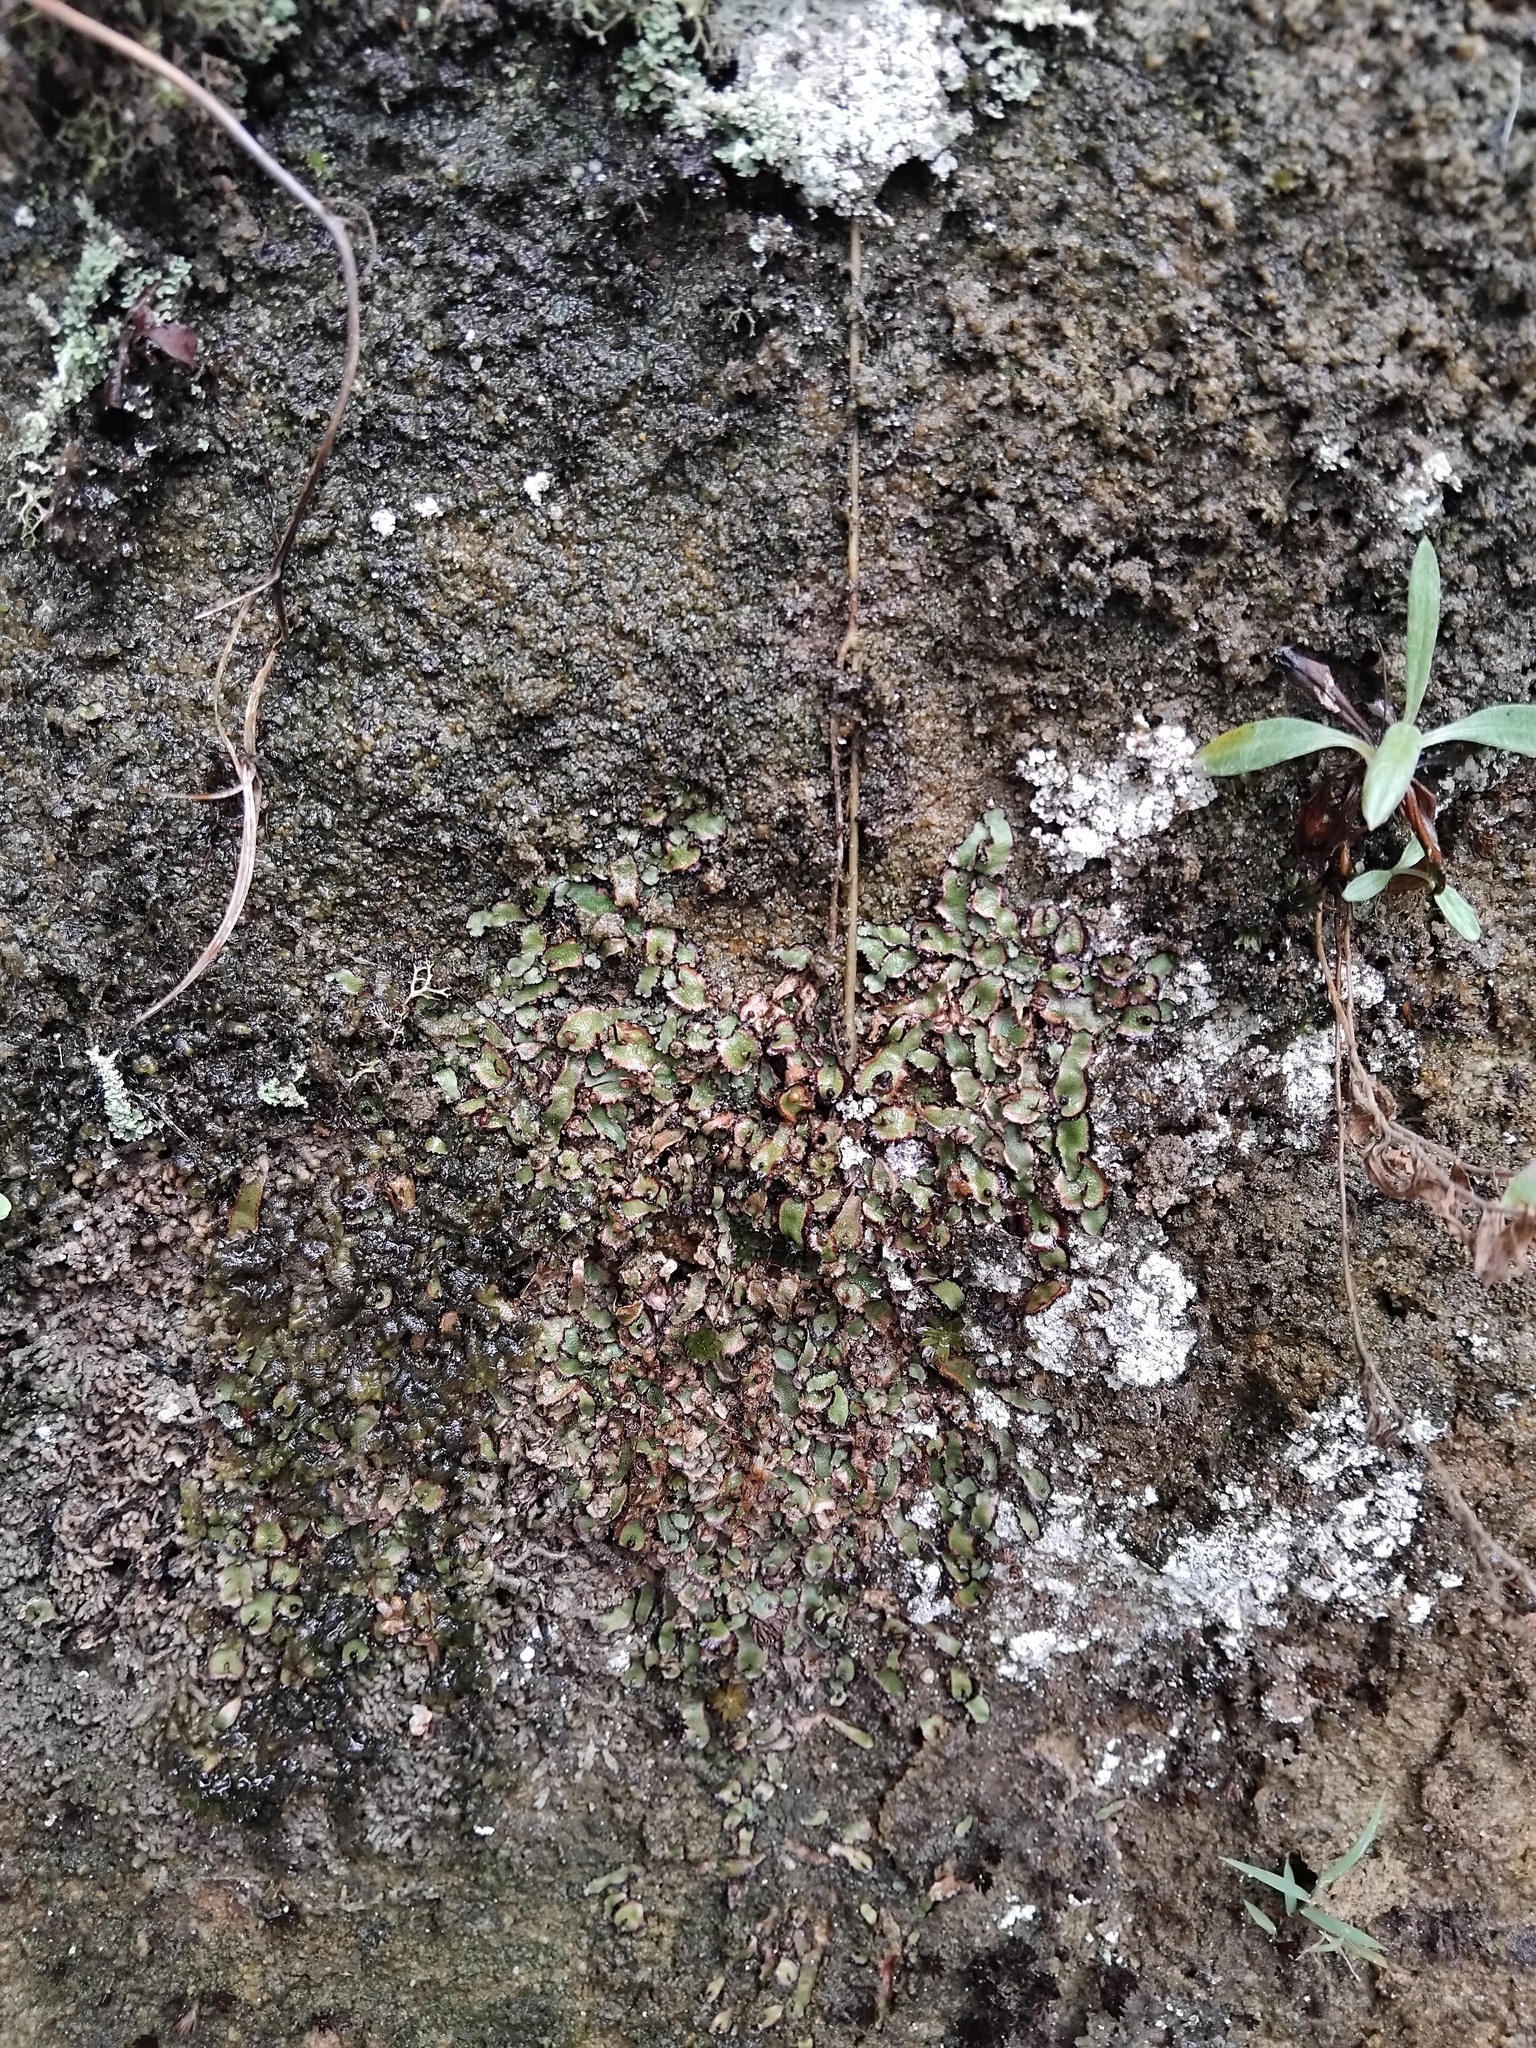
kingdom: Plantae
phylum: Marchantiophyta
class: Marchantiopsida
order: Marchantiales
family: Aytoniaceae
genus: Asterella
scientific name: Asterella drummondii
